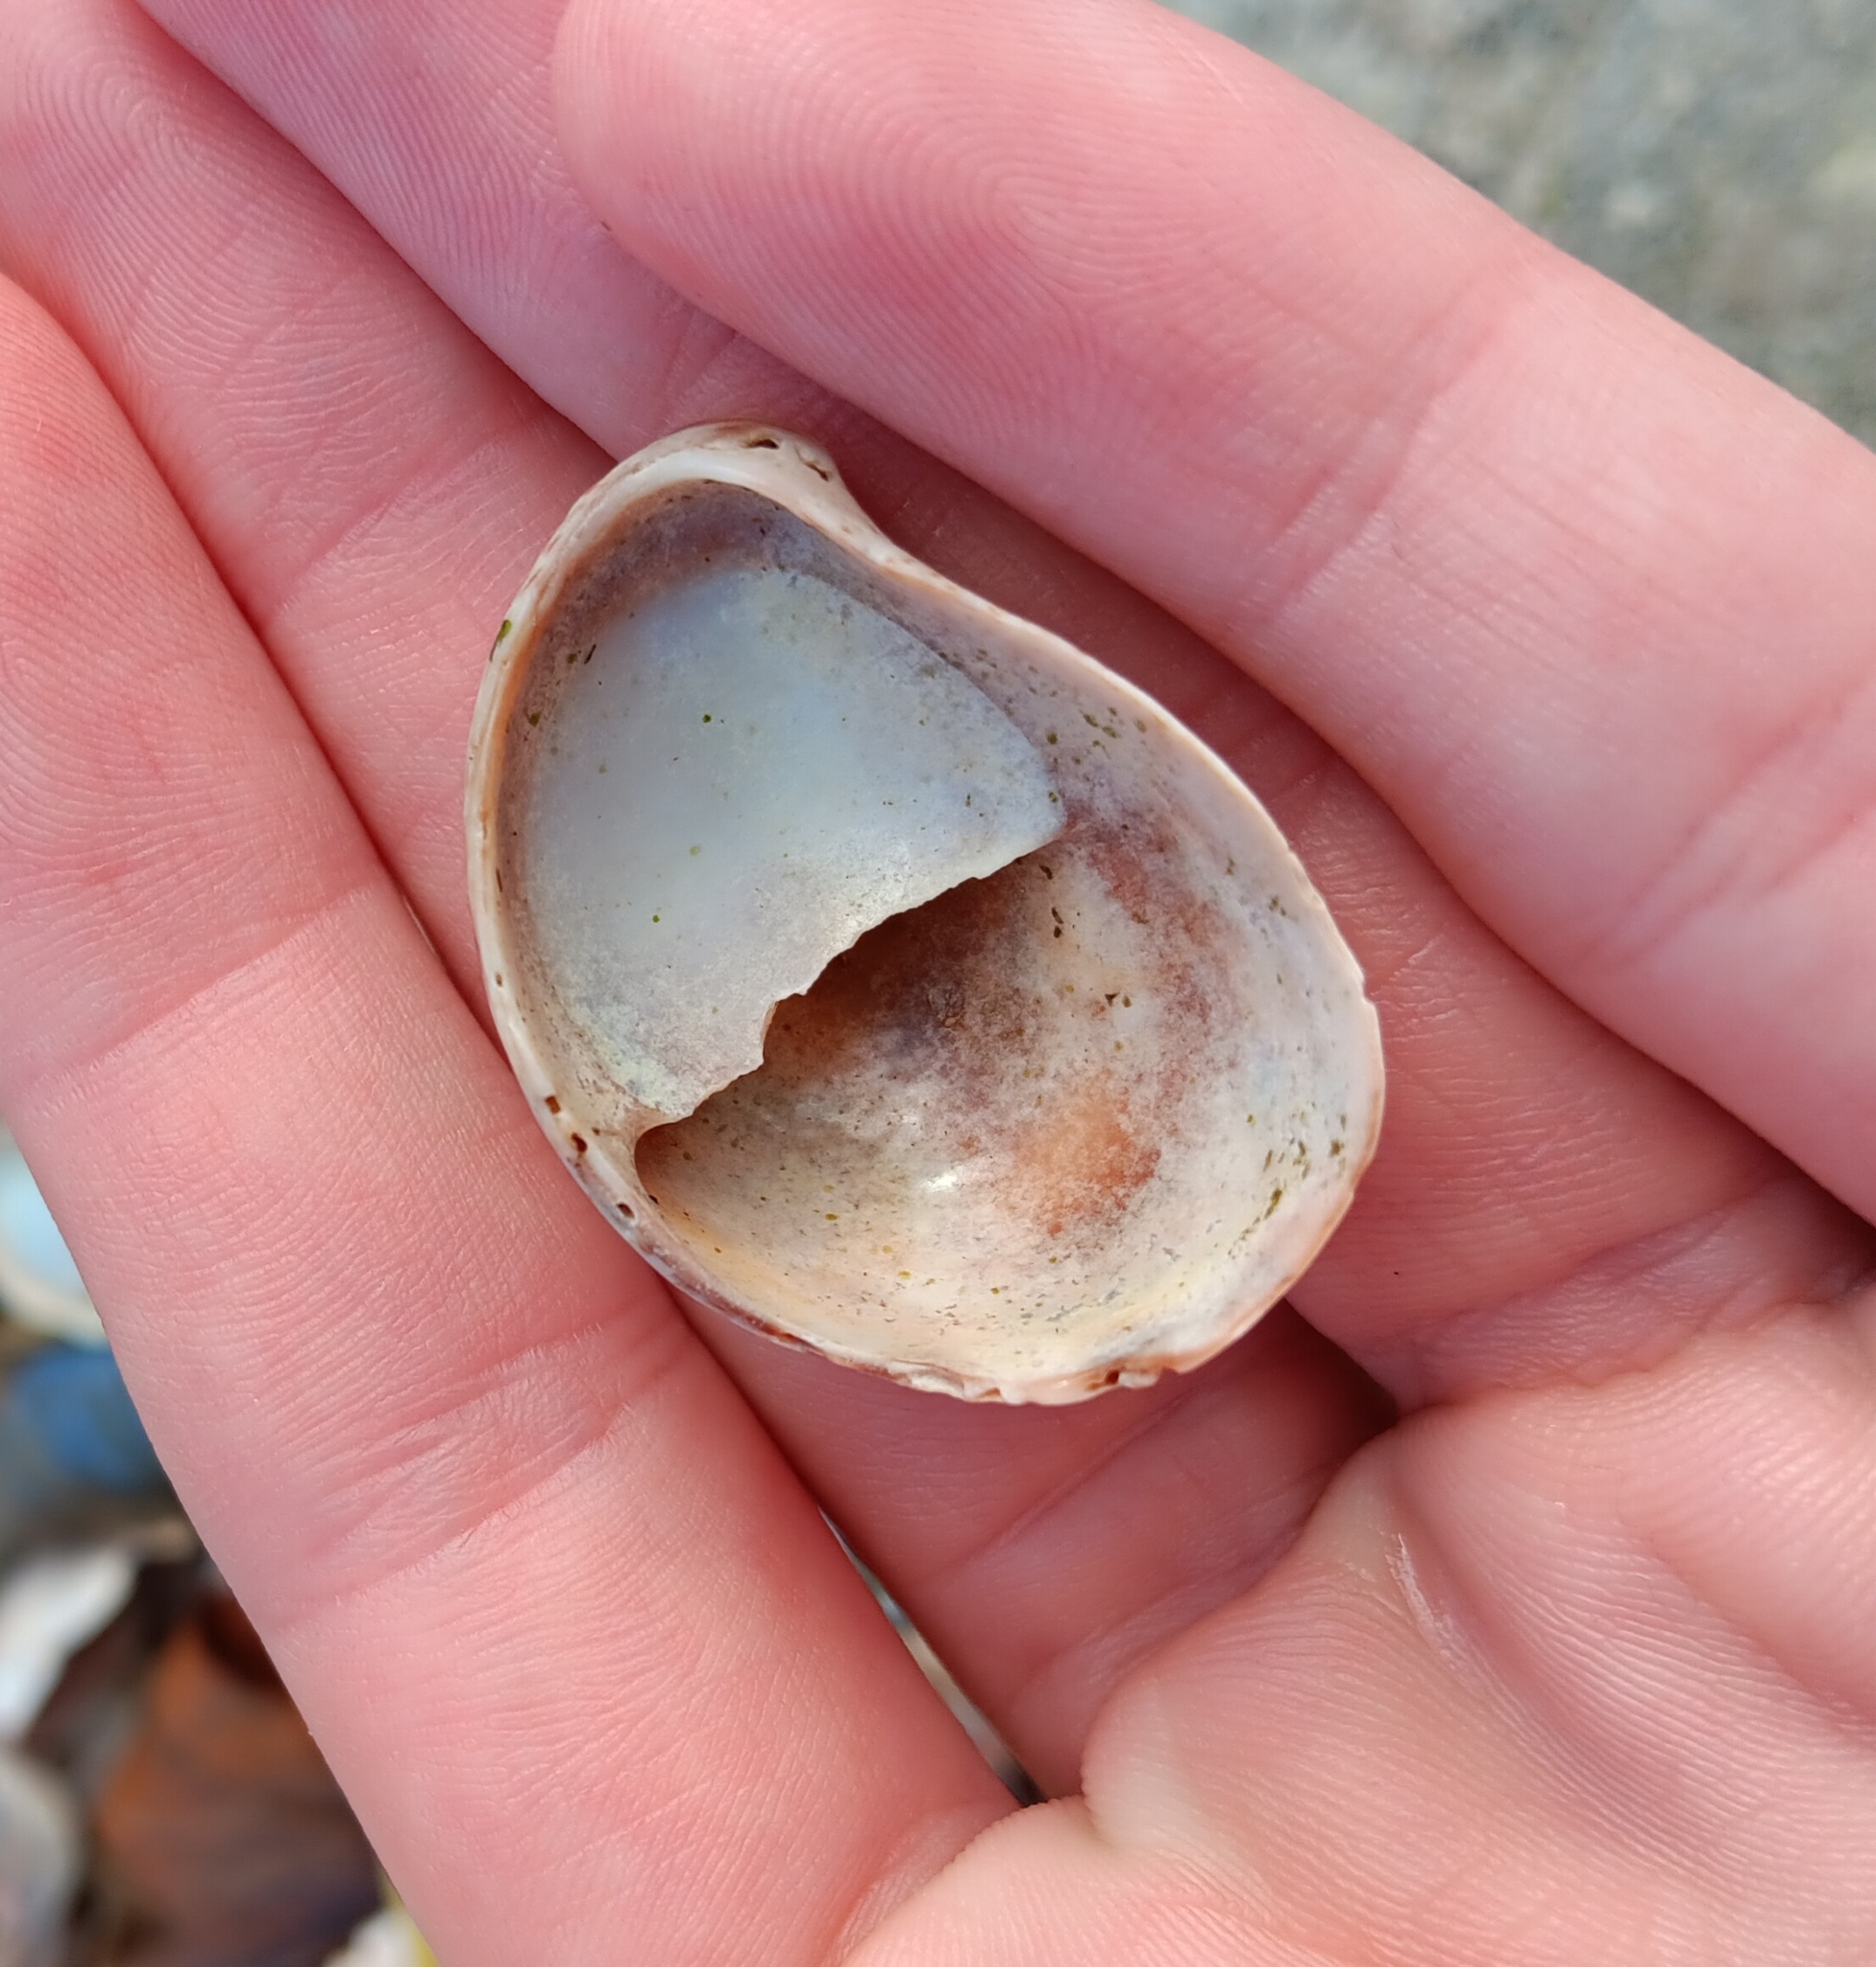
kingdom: Animalia
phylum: Mollusca
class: Gastropoda
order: Littorinimorpha
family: Calyptraeidae
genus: Crepidula
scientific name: Crepidula fornicata
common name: Slipper limpet
